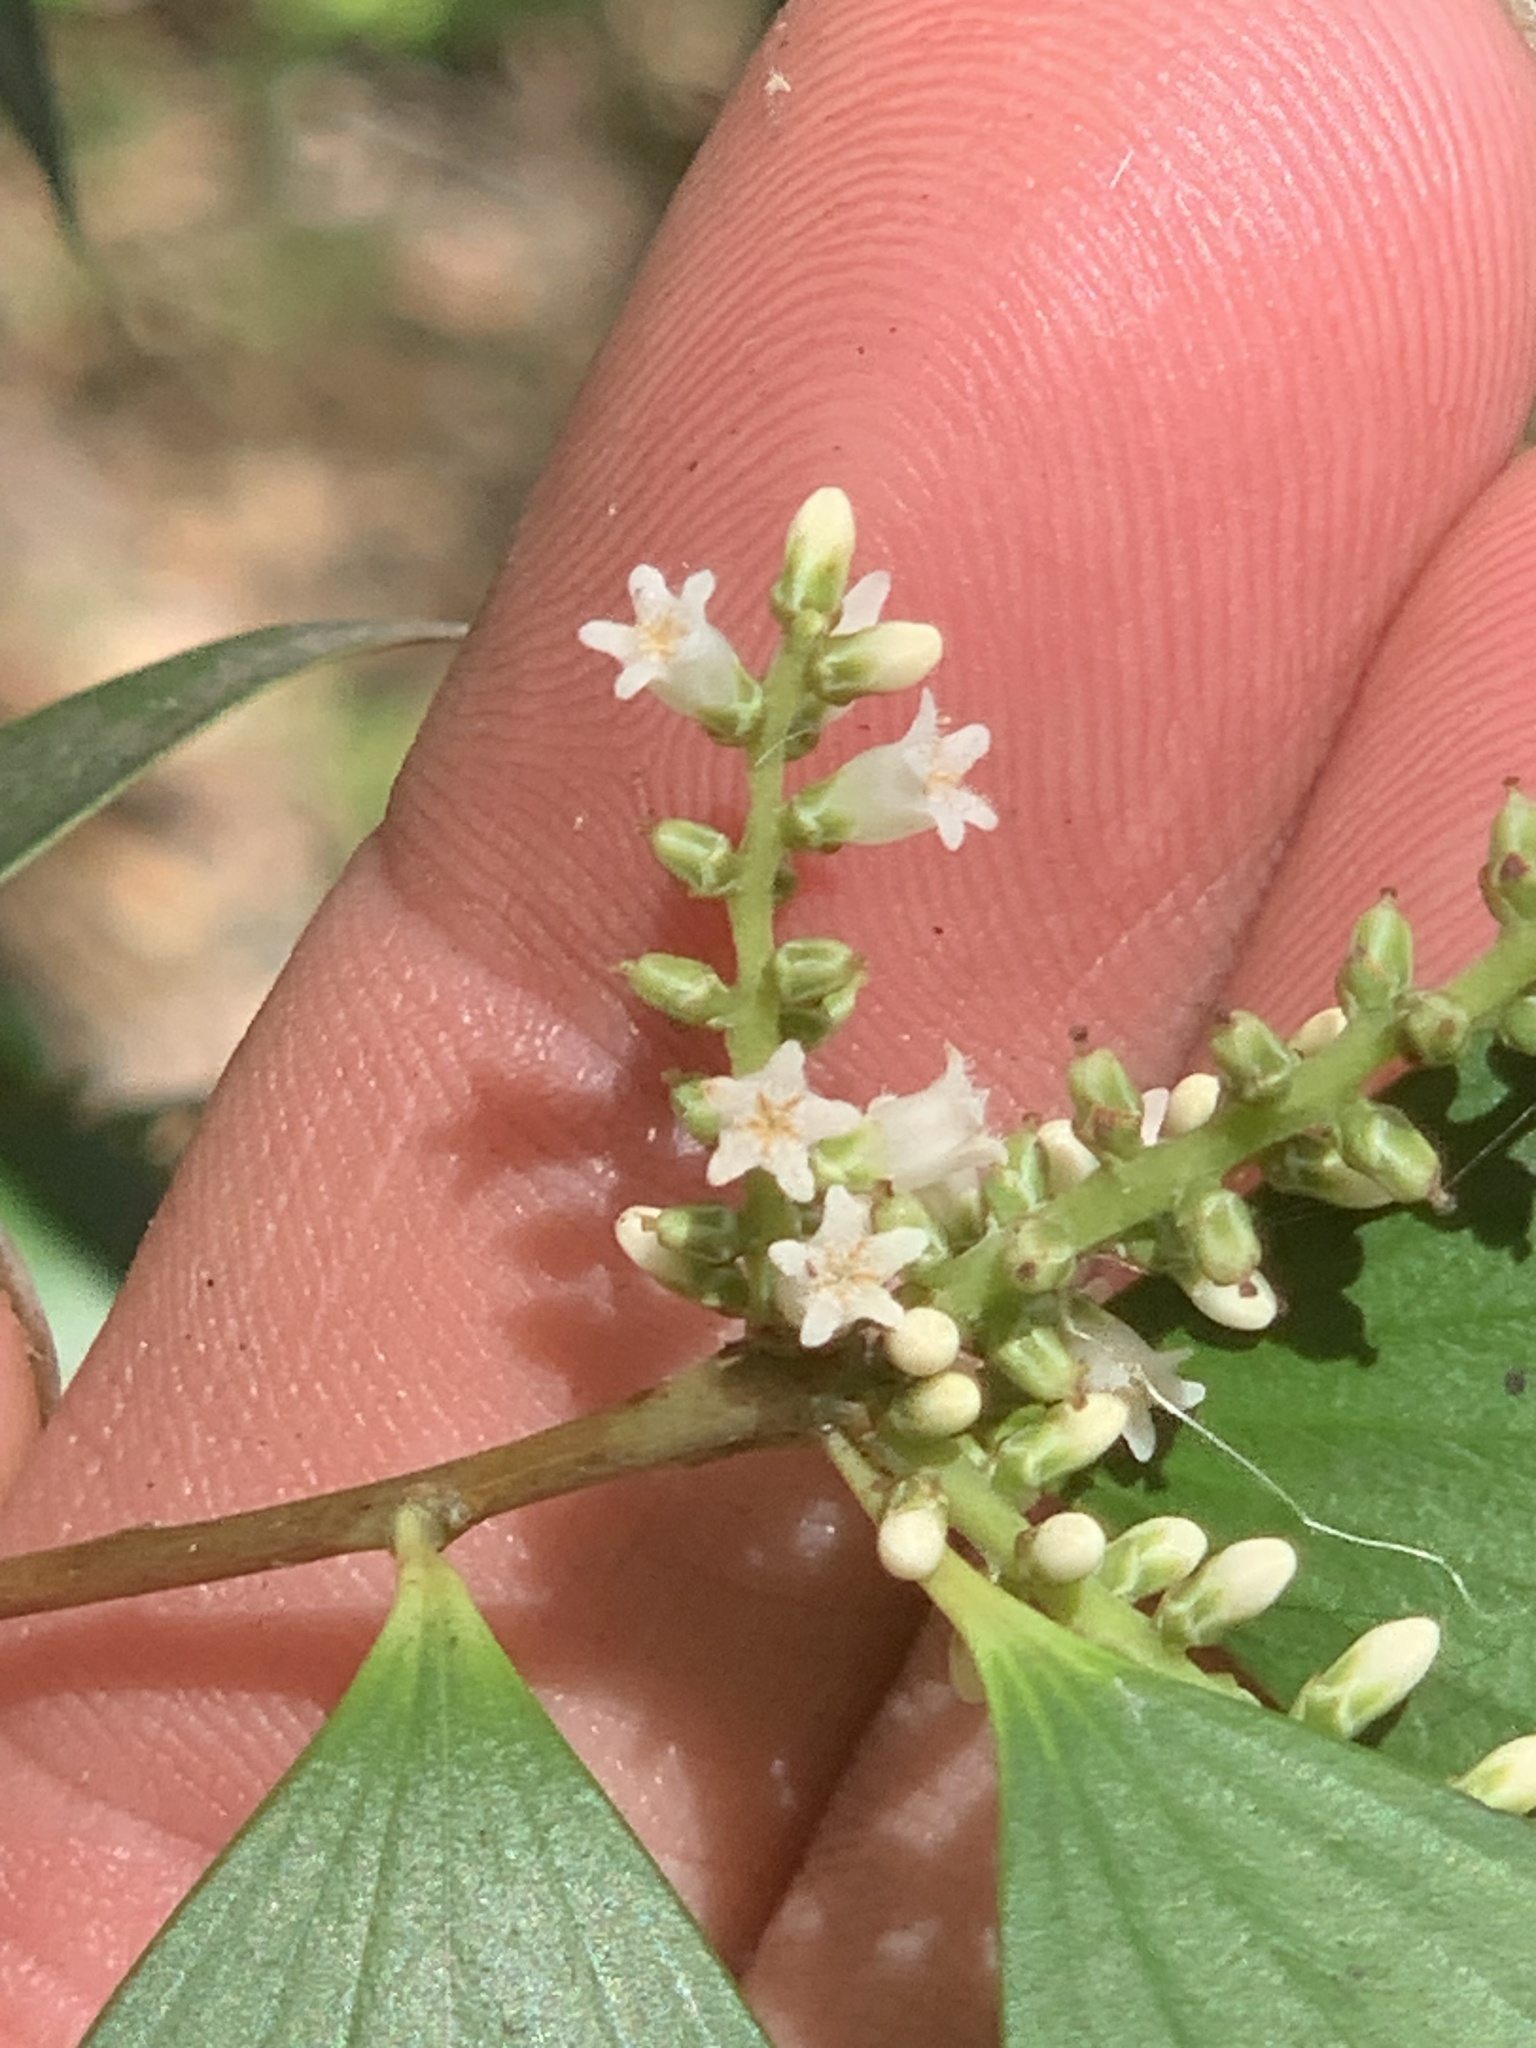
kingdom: Plantae
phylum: Tracheophyta
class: Magnoliopsida
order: Ericales
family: Ericaceae
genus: Trochocarpa
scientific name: Trochocarpa laurina
